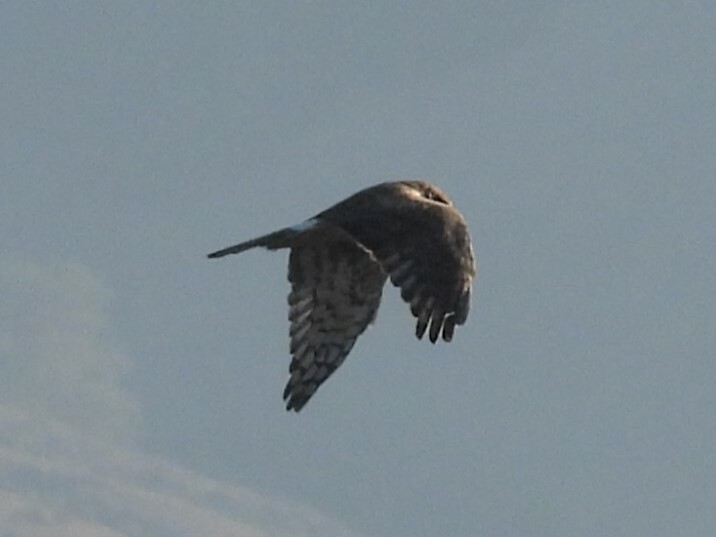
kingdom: Animalia
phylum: Chordata
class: Aves
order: Accipitriformes
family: Accipitridae
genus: Circus
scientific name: Circus cyaneus
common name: Hen harrier
